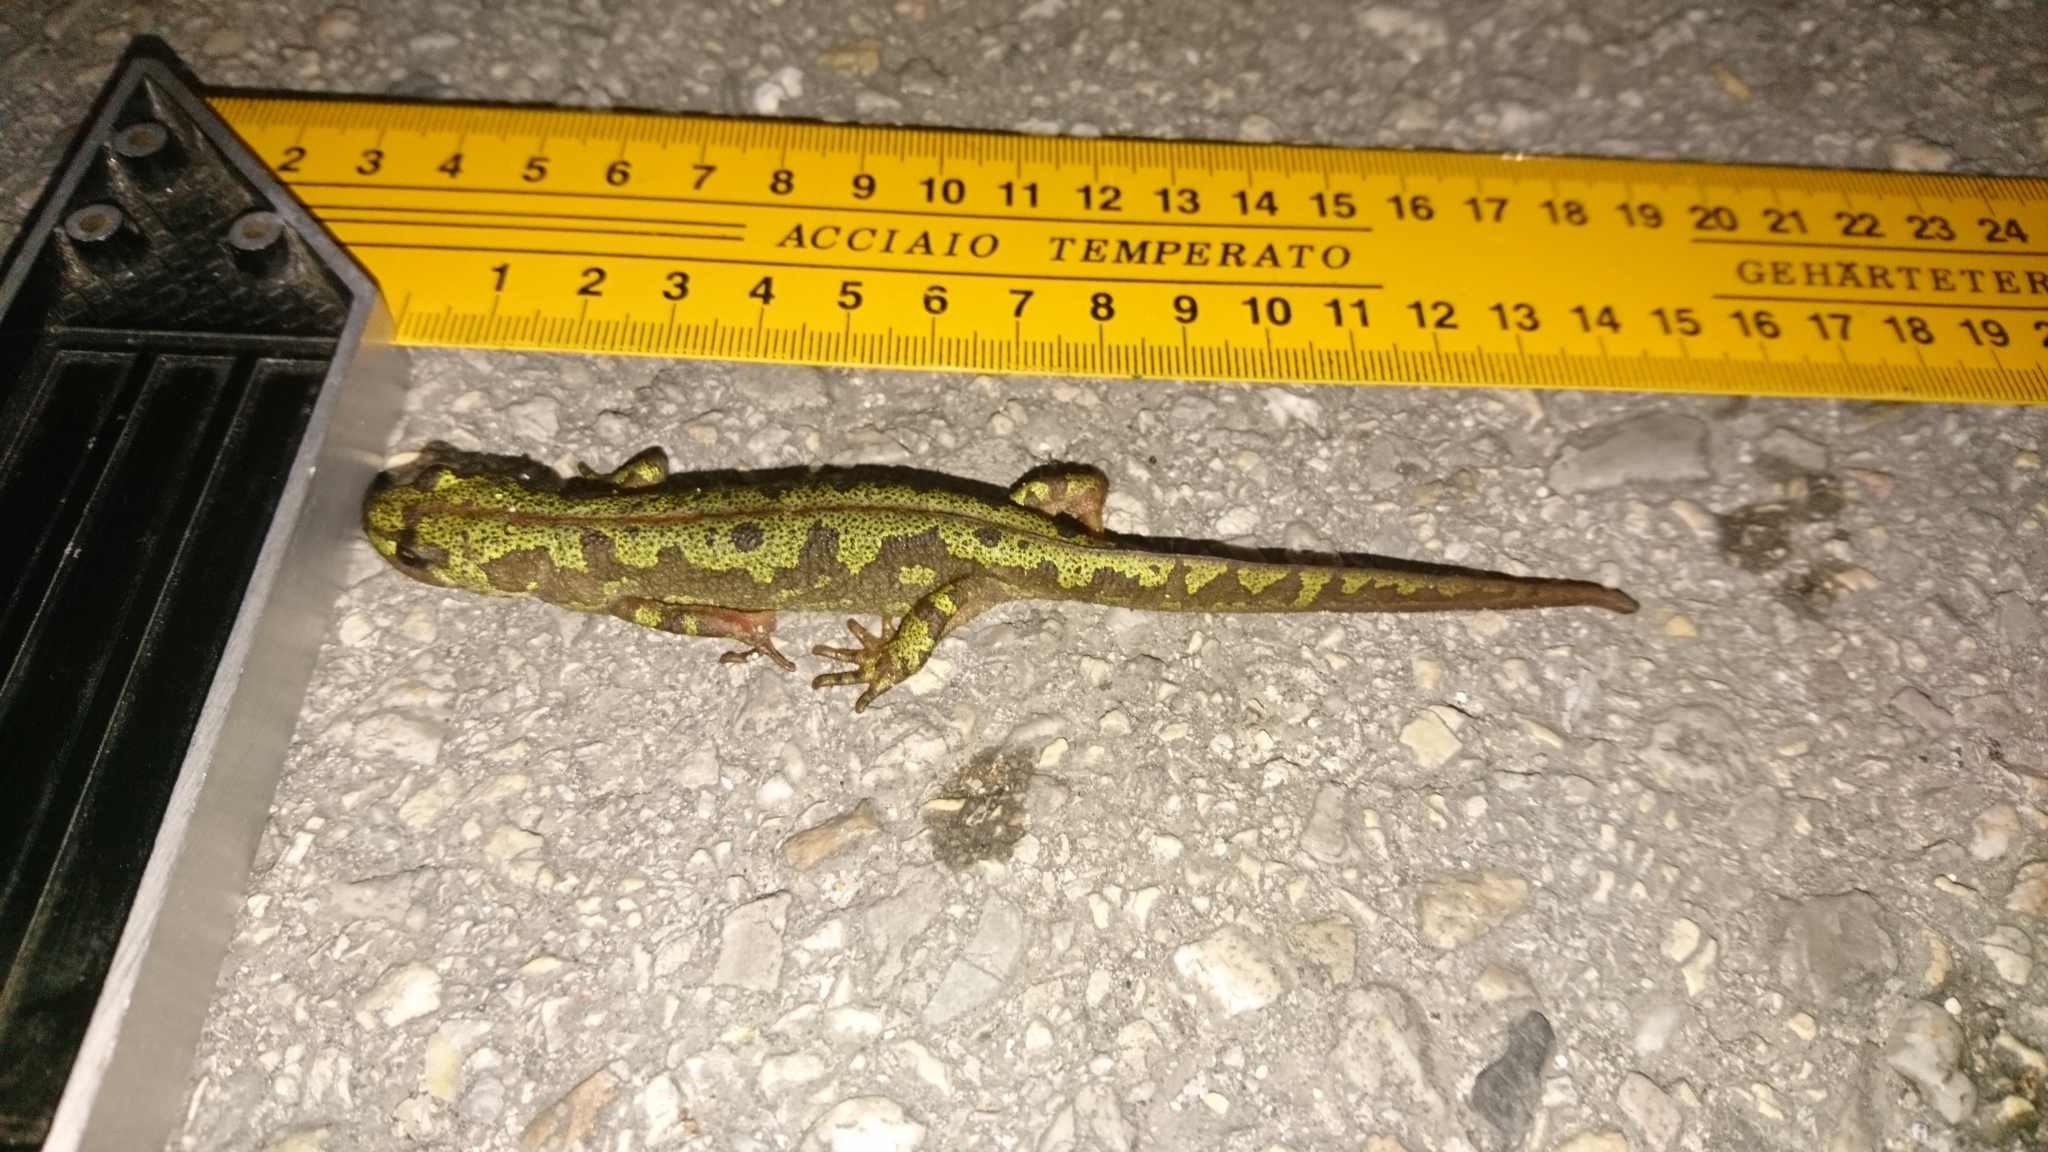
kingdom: Animalia
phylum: Chordata
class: Amphibia
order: Caudata
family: Salamandridae
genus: Triturus
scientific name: Triturus marmoratus
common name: Marbled newt
